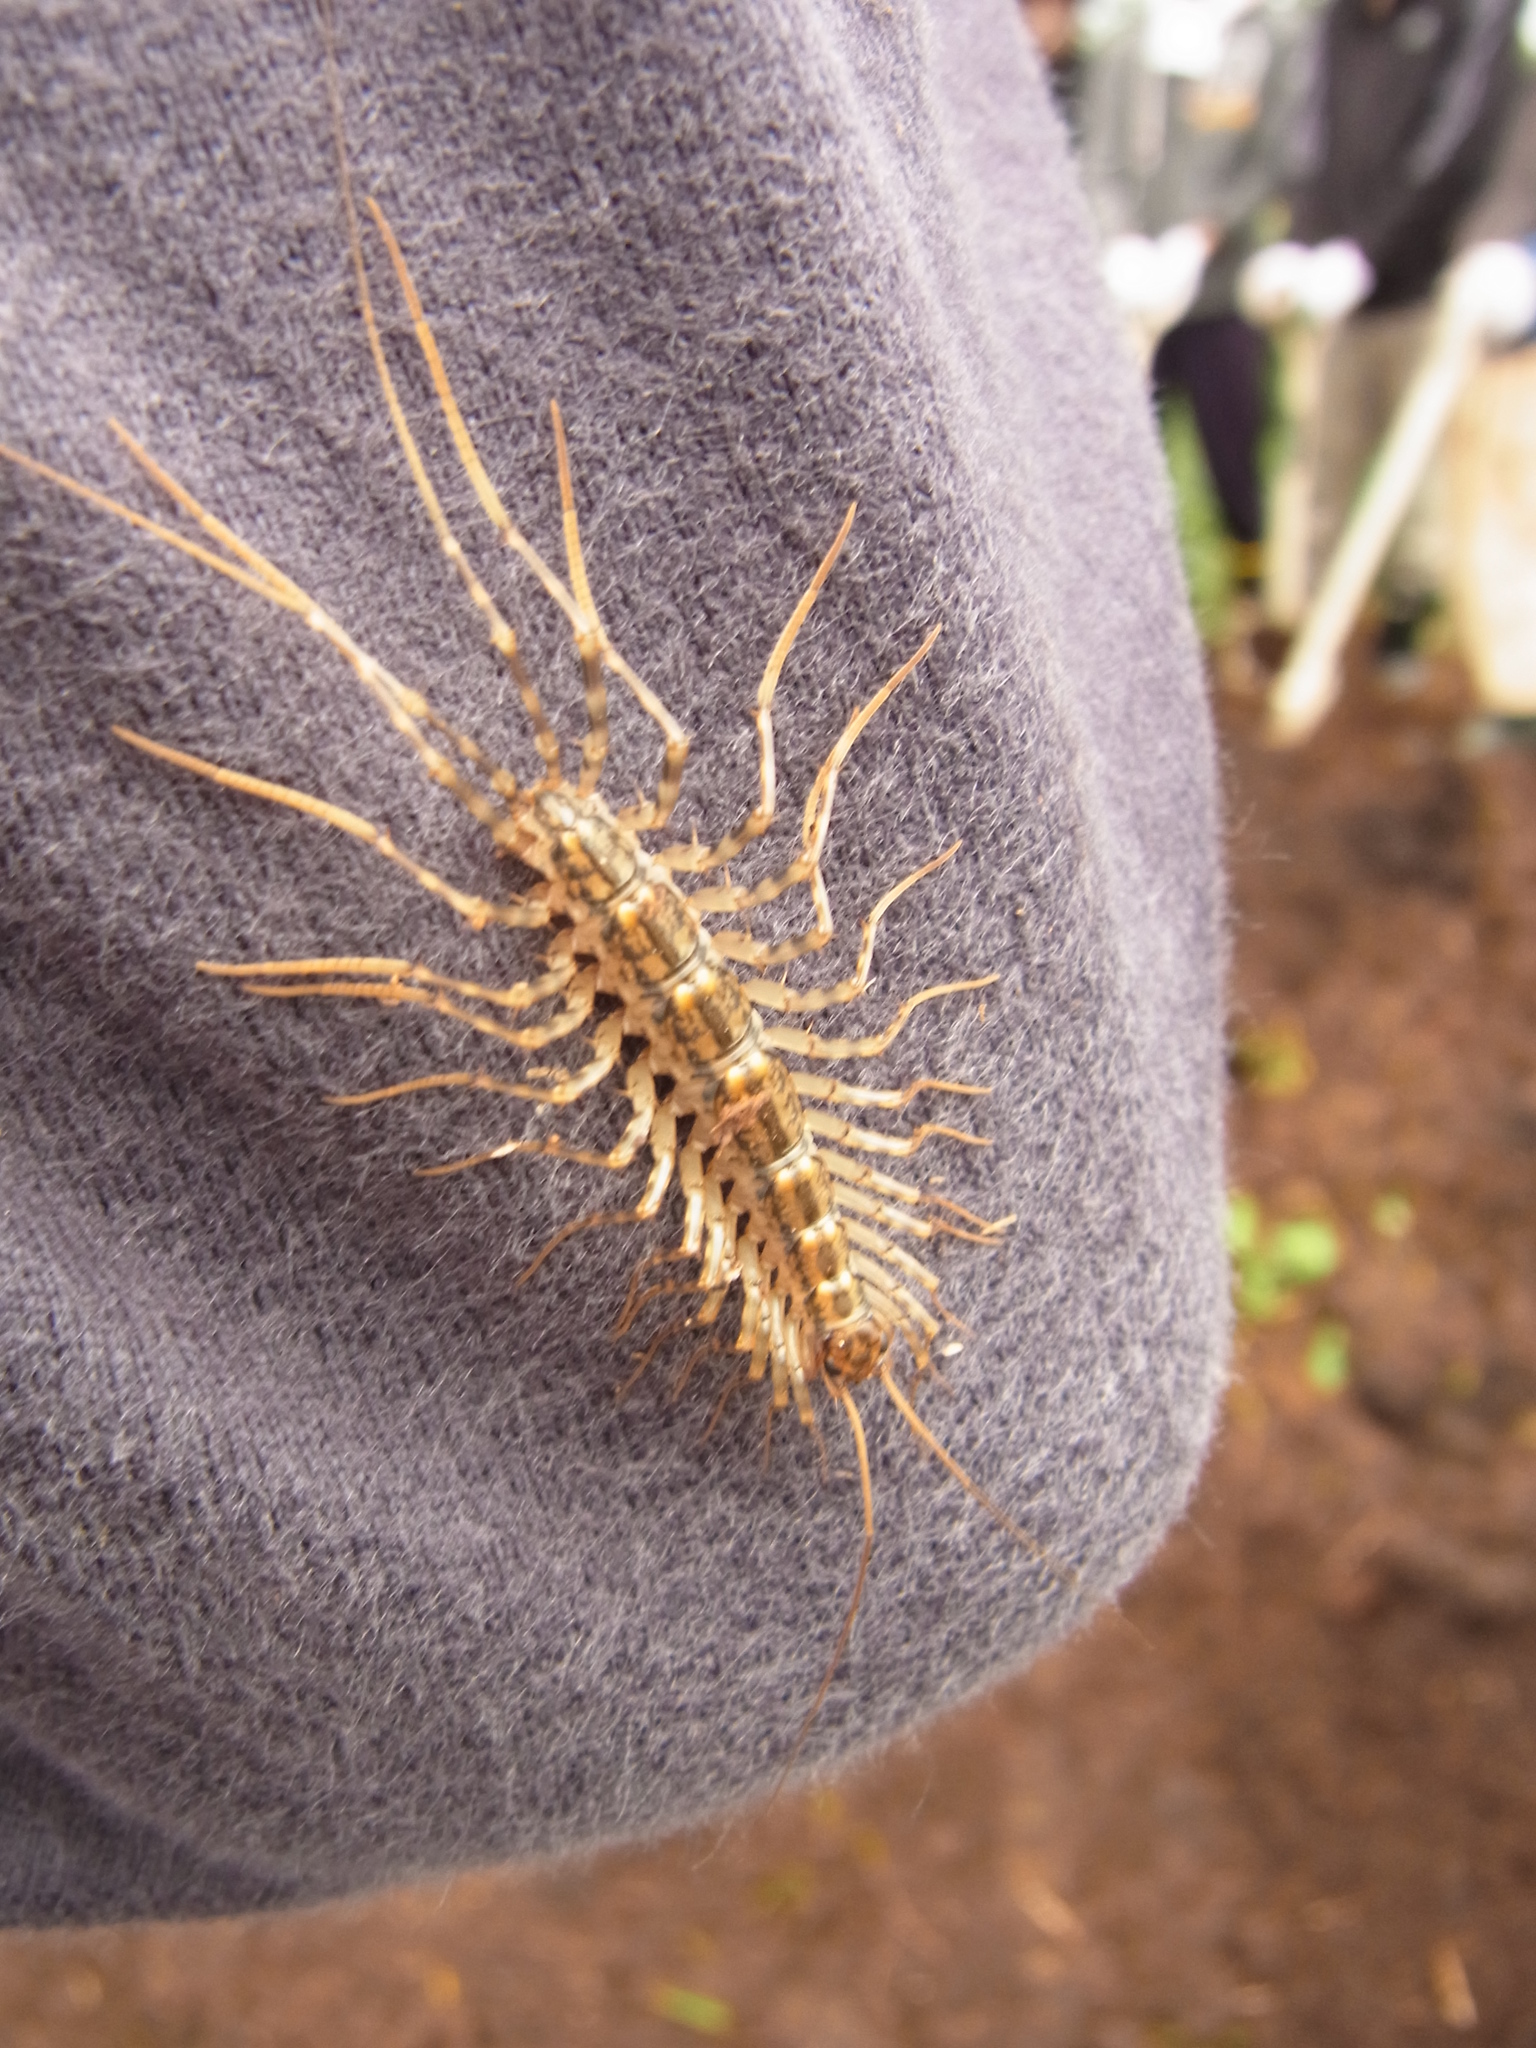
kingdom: Animalia
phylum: Arthropoda
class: Chilopoda
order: Scutigeromorpha
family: Scutigeridae
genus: Thereuonema
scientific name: Thereuonema tuberculata
